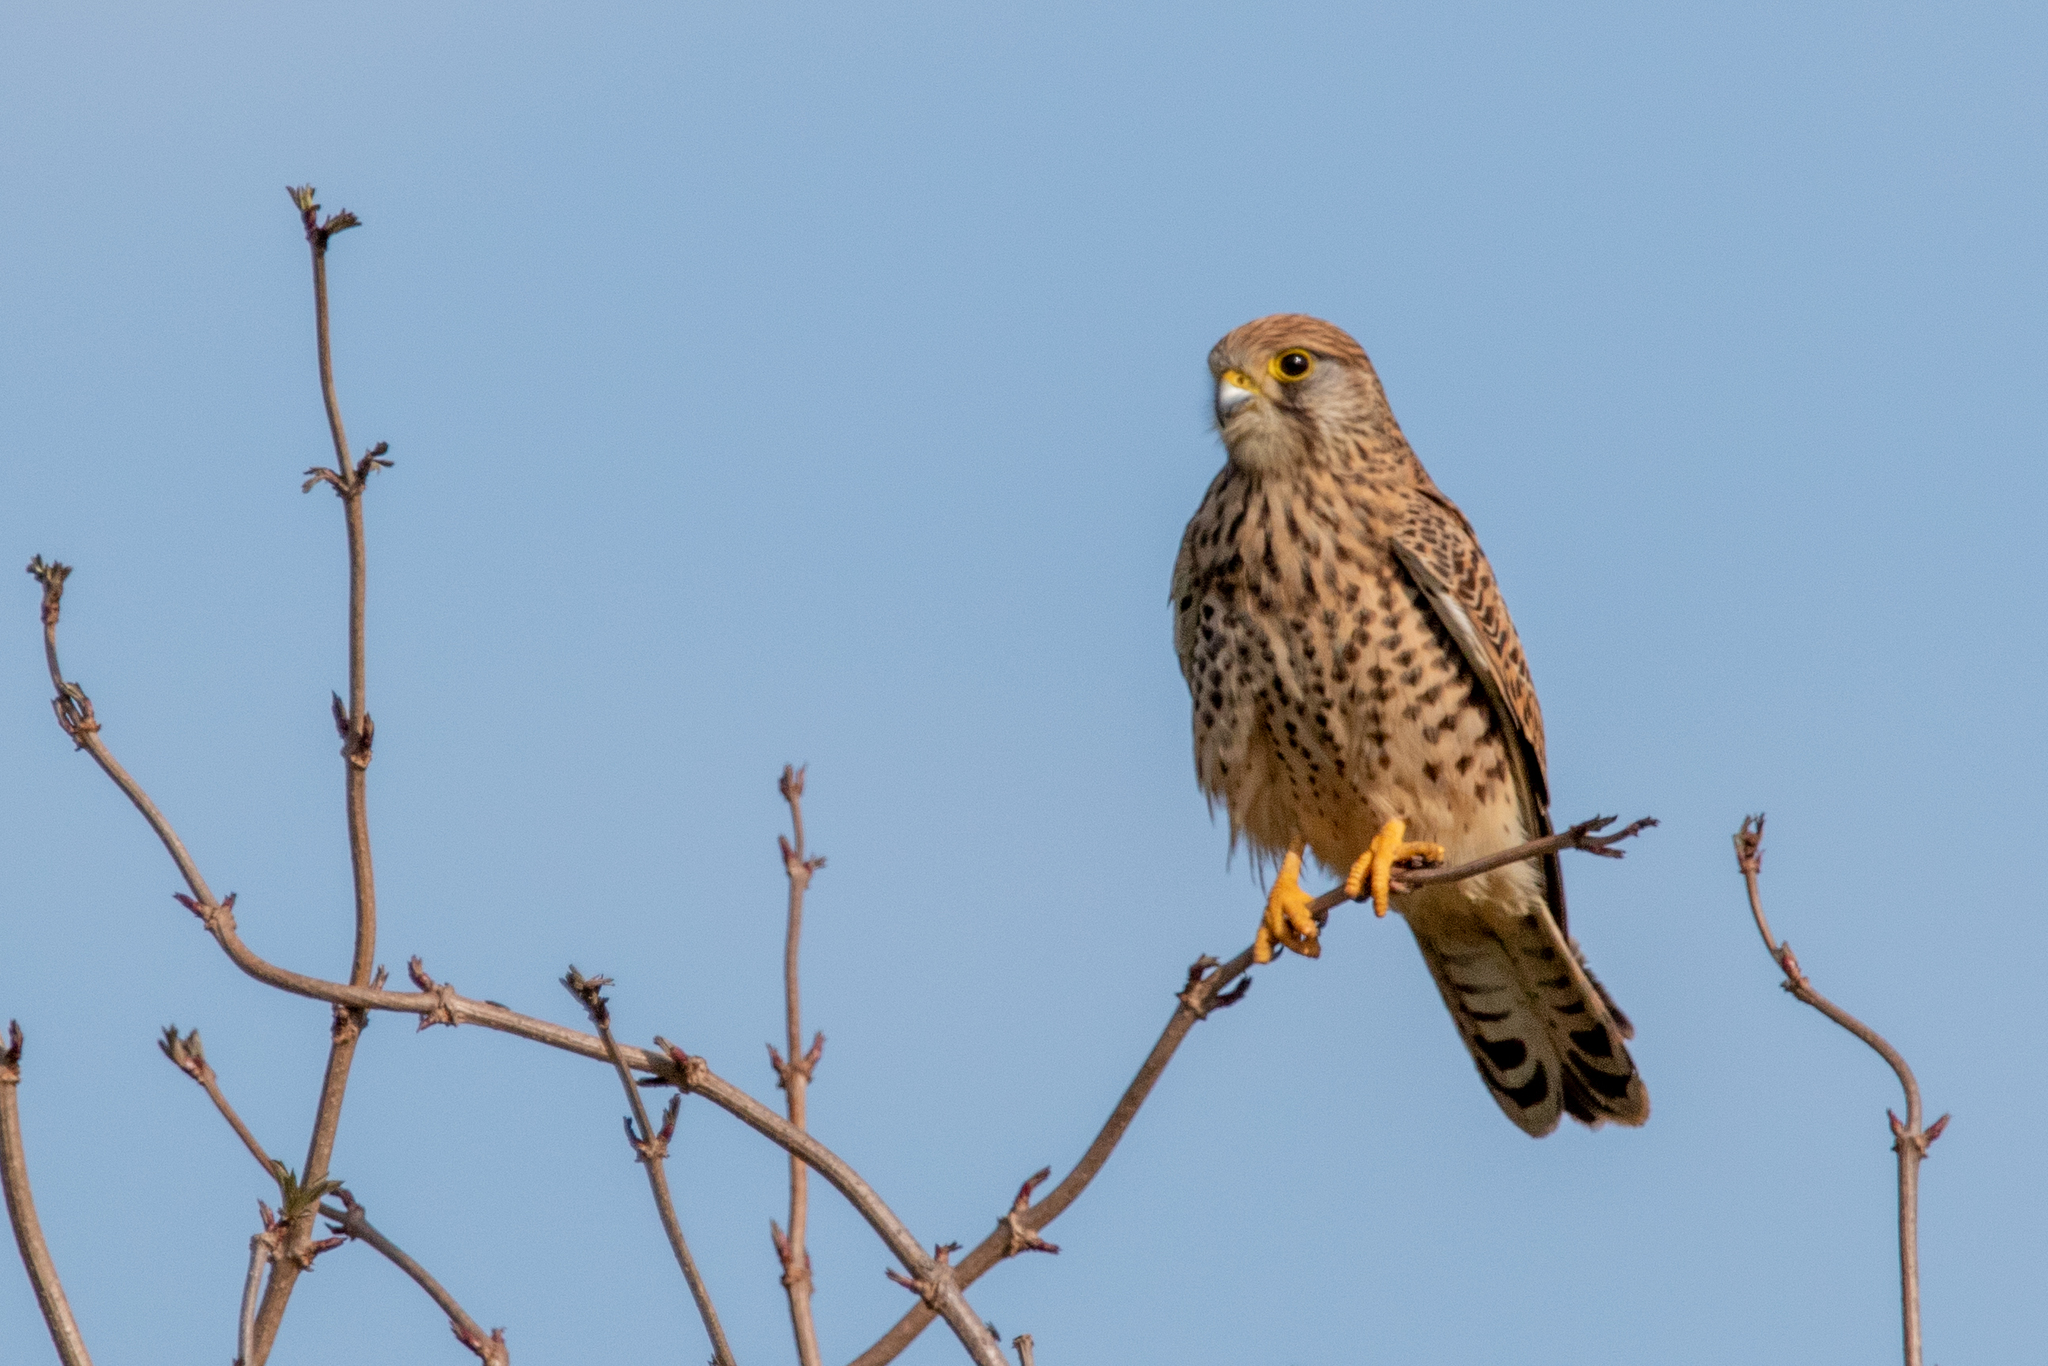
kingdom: Animalia
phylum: Chordata
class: Aves
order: Falconiformes
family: Falconidae
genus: Falco
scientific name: Falco tinnunculus
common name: Common kestrel
